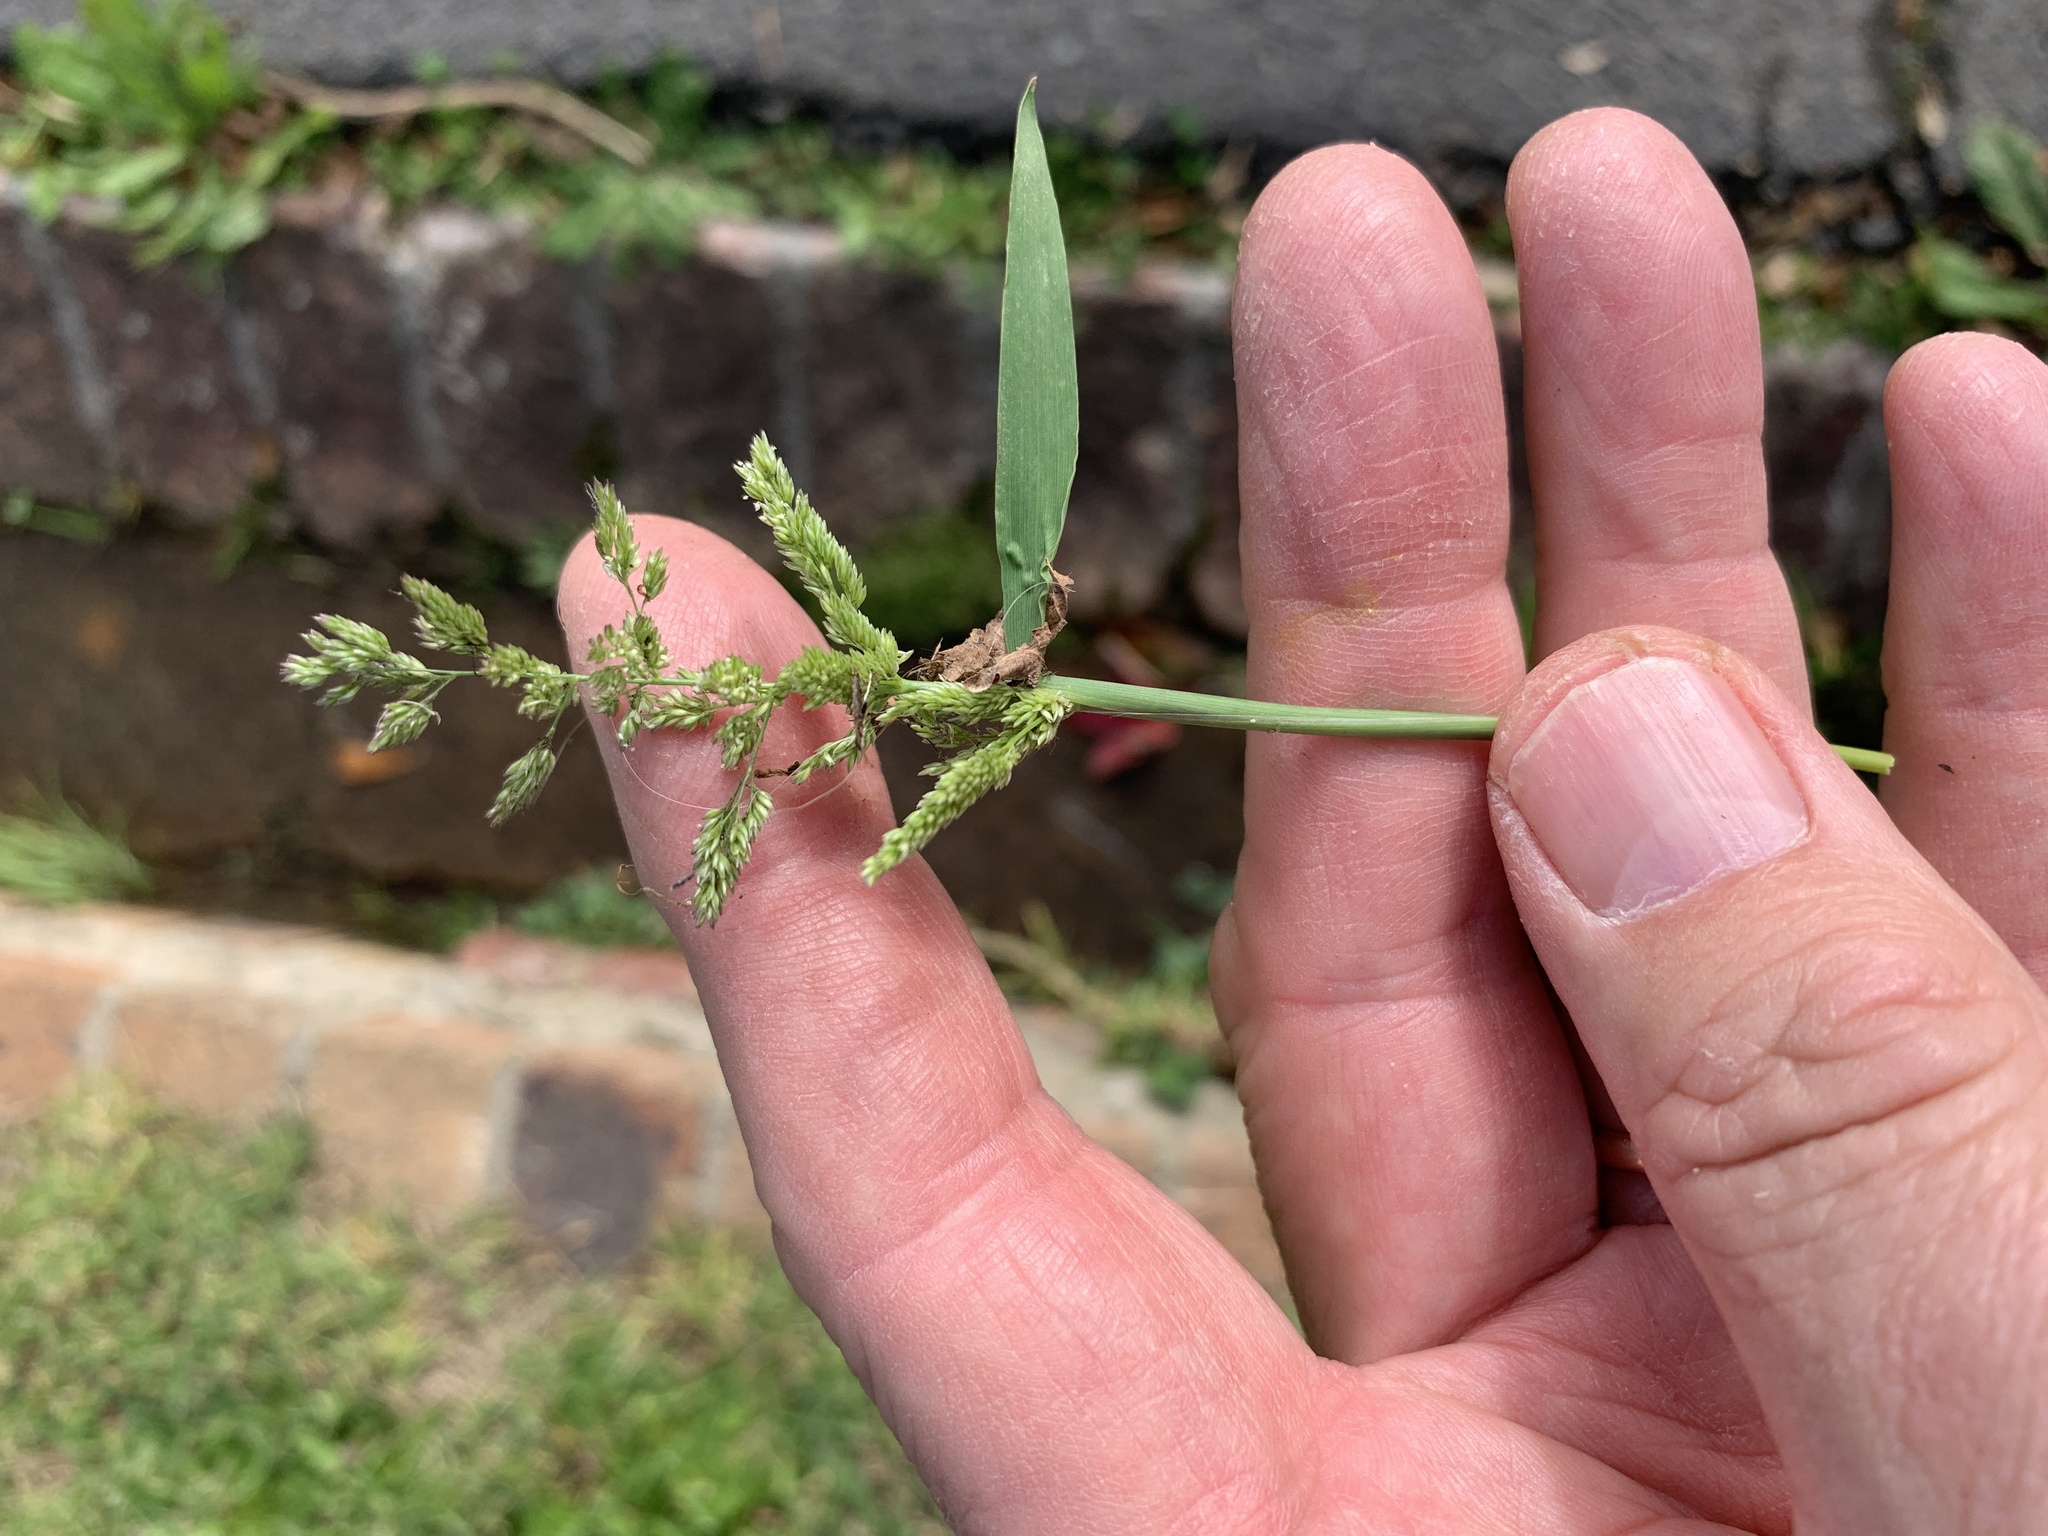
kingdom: Plantae
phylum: Tracheophyta
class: Liliopsida
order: Poales
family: Poaceae
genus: Polypogon
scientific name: Polypogon viridis
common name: Water bent
